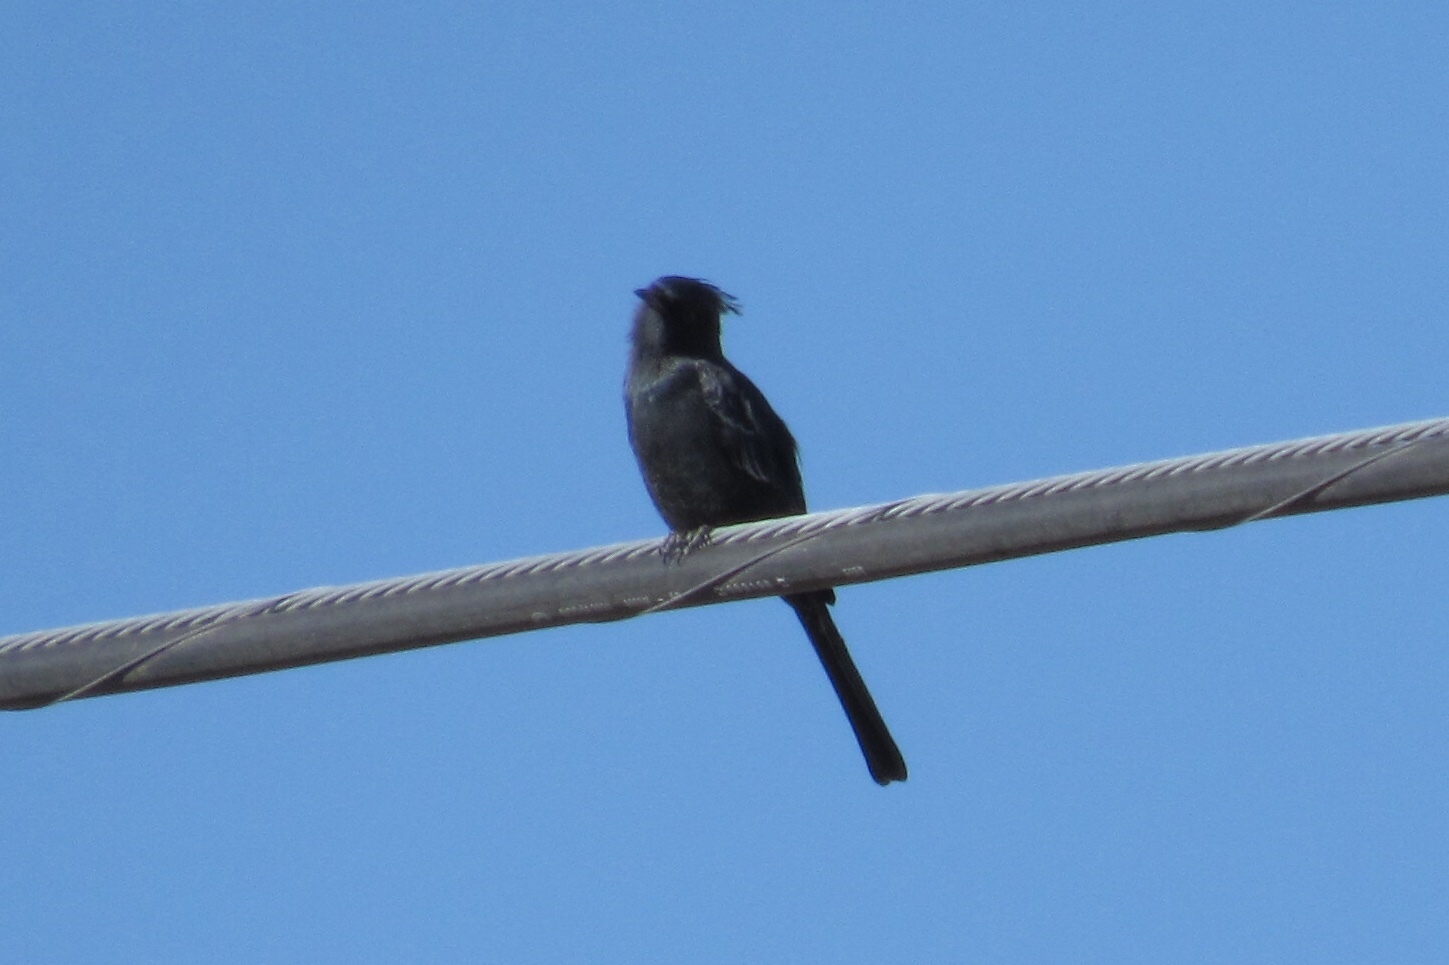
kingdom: Animalia
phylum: Chordata
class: Aves
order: Passeriformes
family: Ptilogonatidae
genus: Phainopepla
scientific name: Phainopepla nitens
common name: Phainopepla
